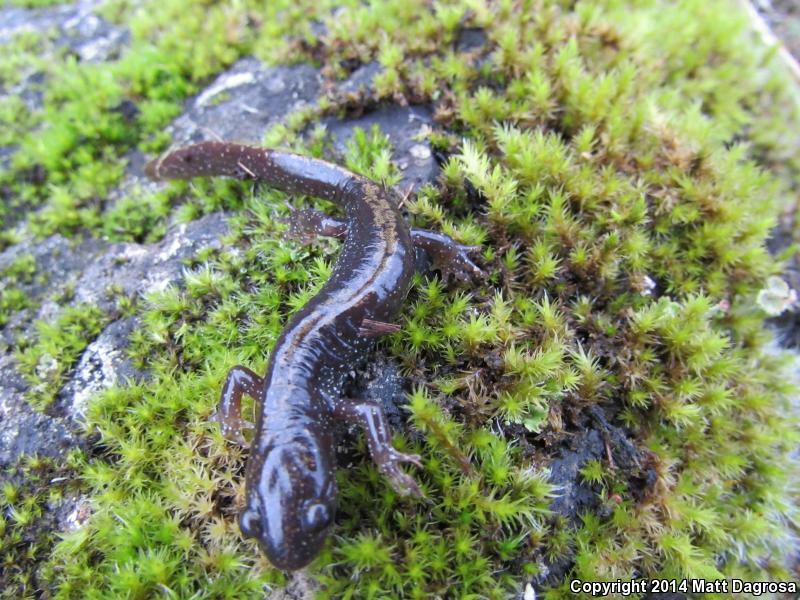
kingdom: Animalia
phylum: Chordata
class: Amphibia
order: Caudata
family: Ambystomatidae
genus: Ambystoma
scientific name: Ambystoma macrodactylum
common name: Long-toed salamander
